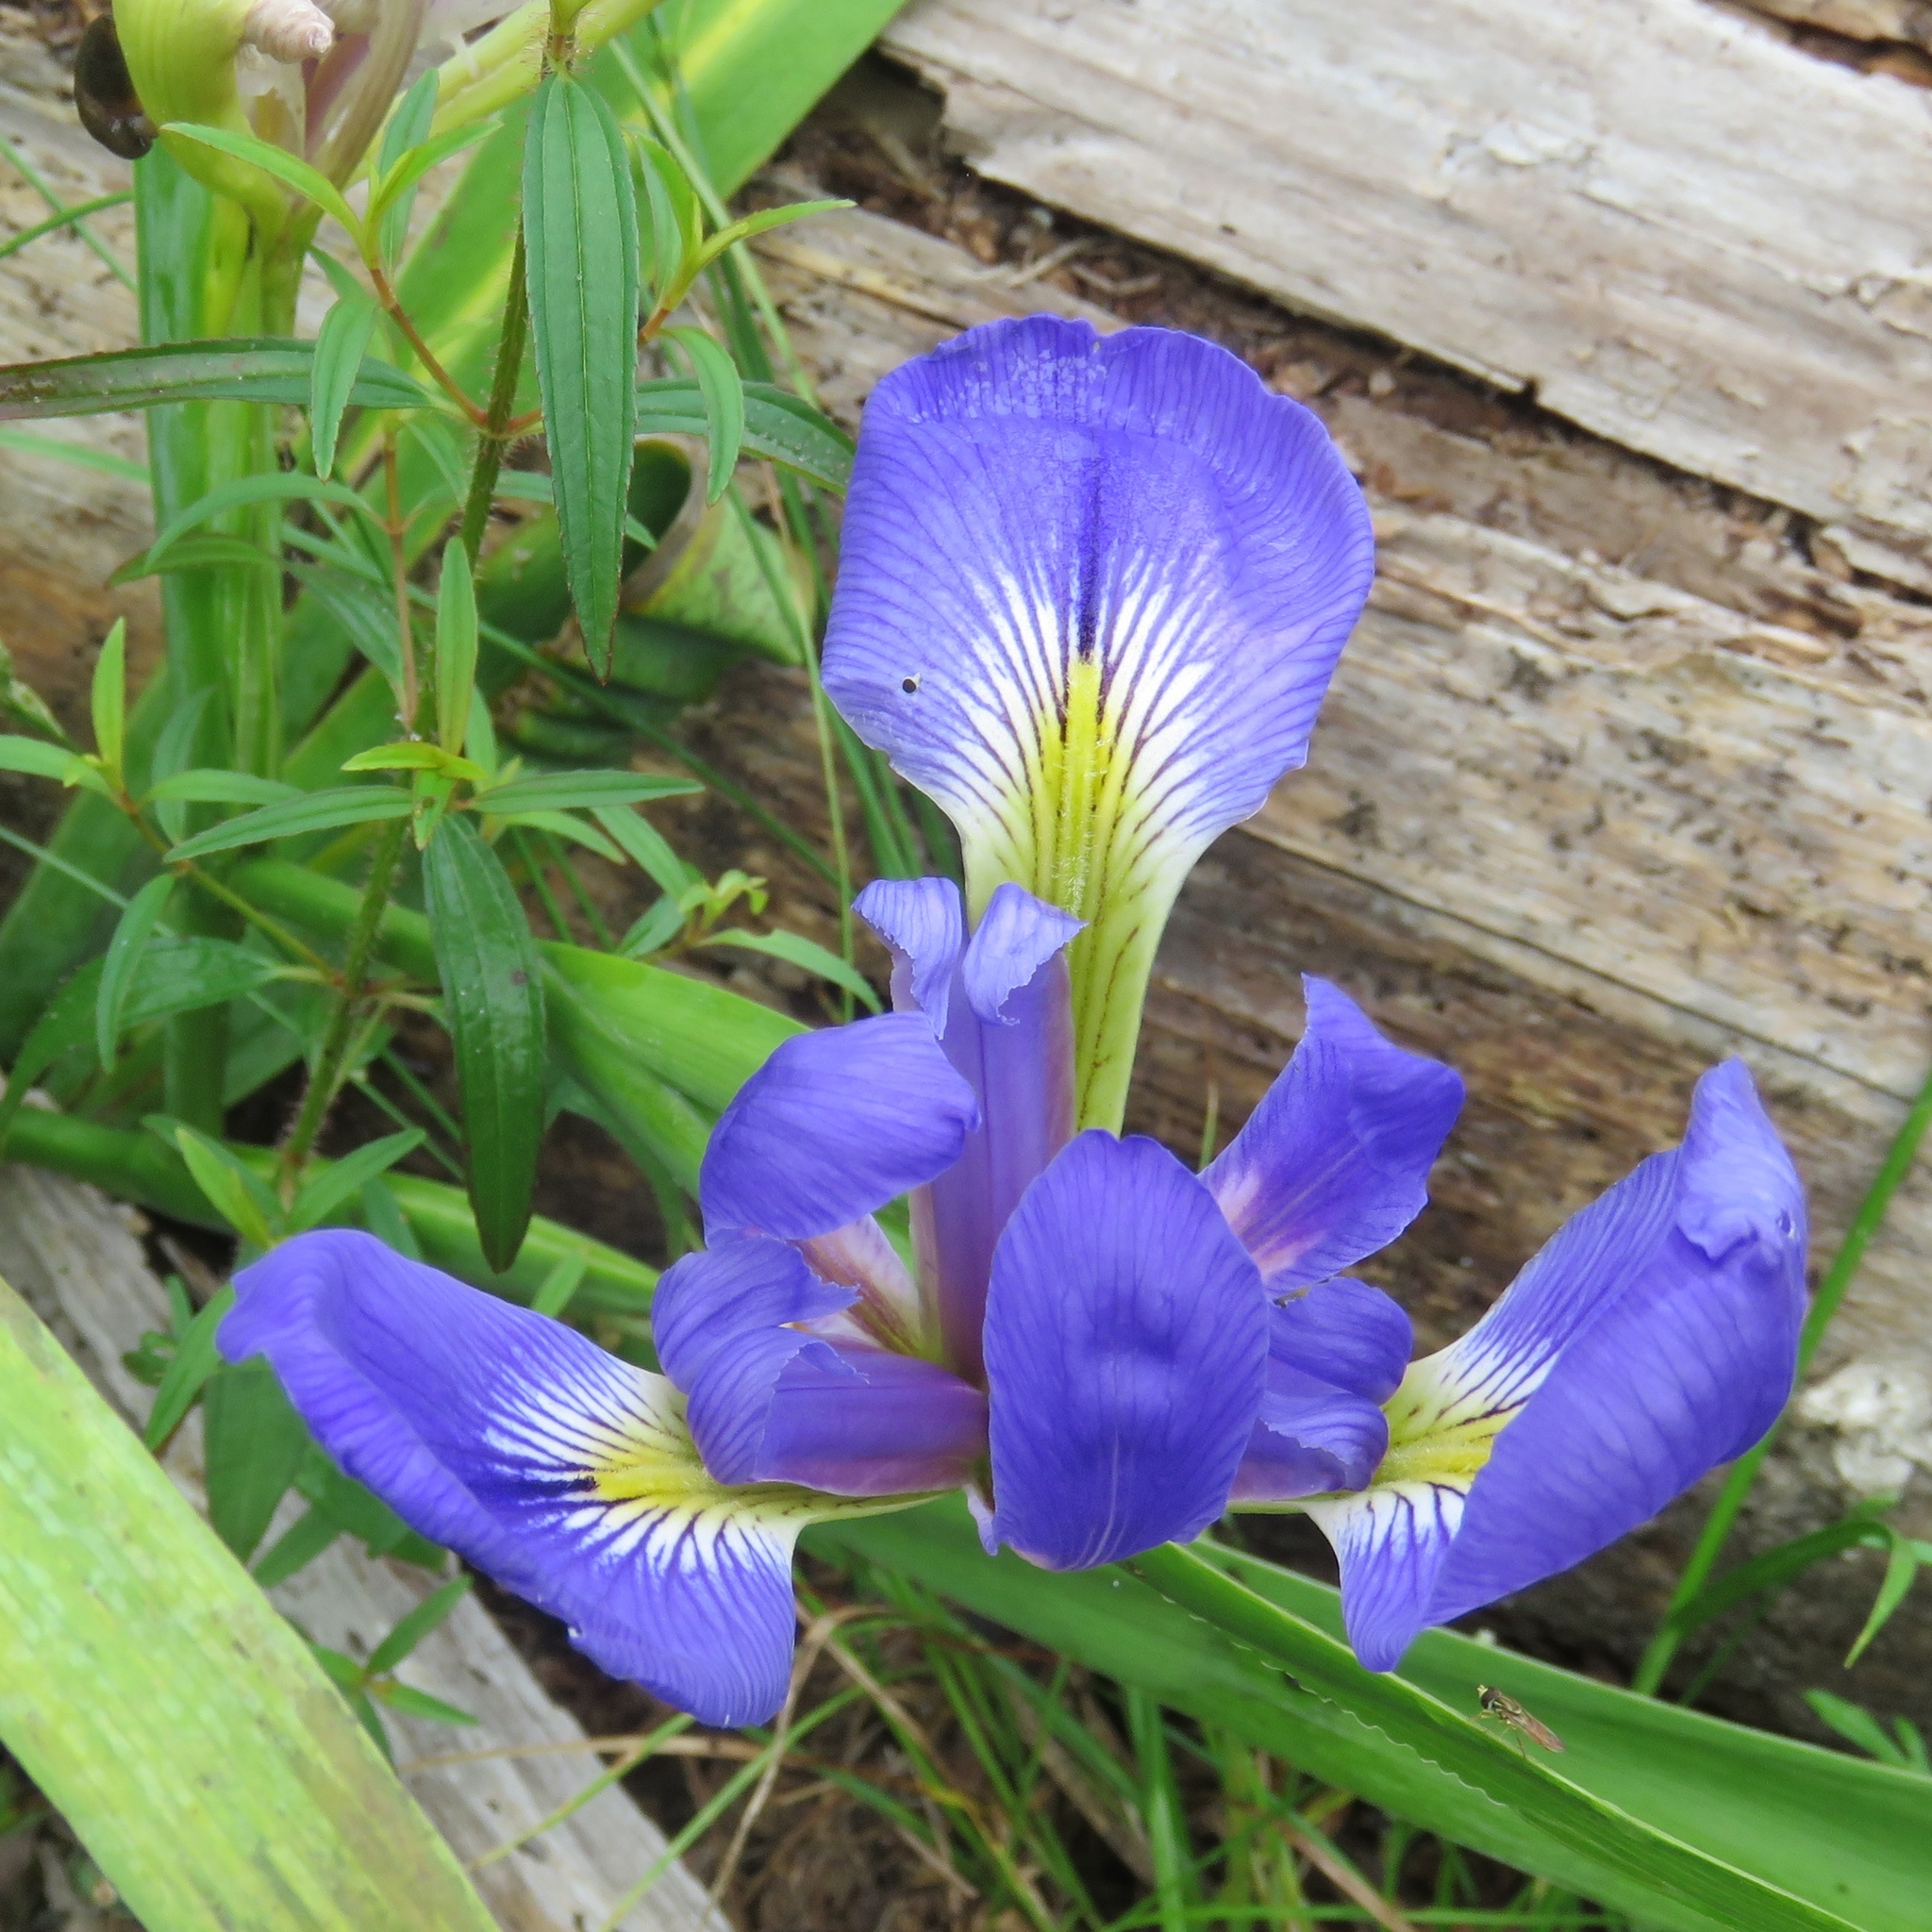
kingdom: Plantae
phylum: Tracheophyta
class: Liliopsida
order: Asparagales
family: Iridaceae
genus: Iris
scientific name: Iris virginica
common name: Southern blue flag
